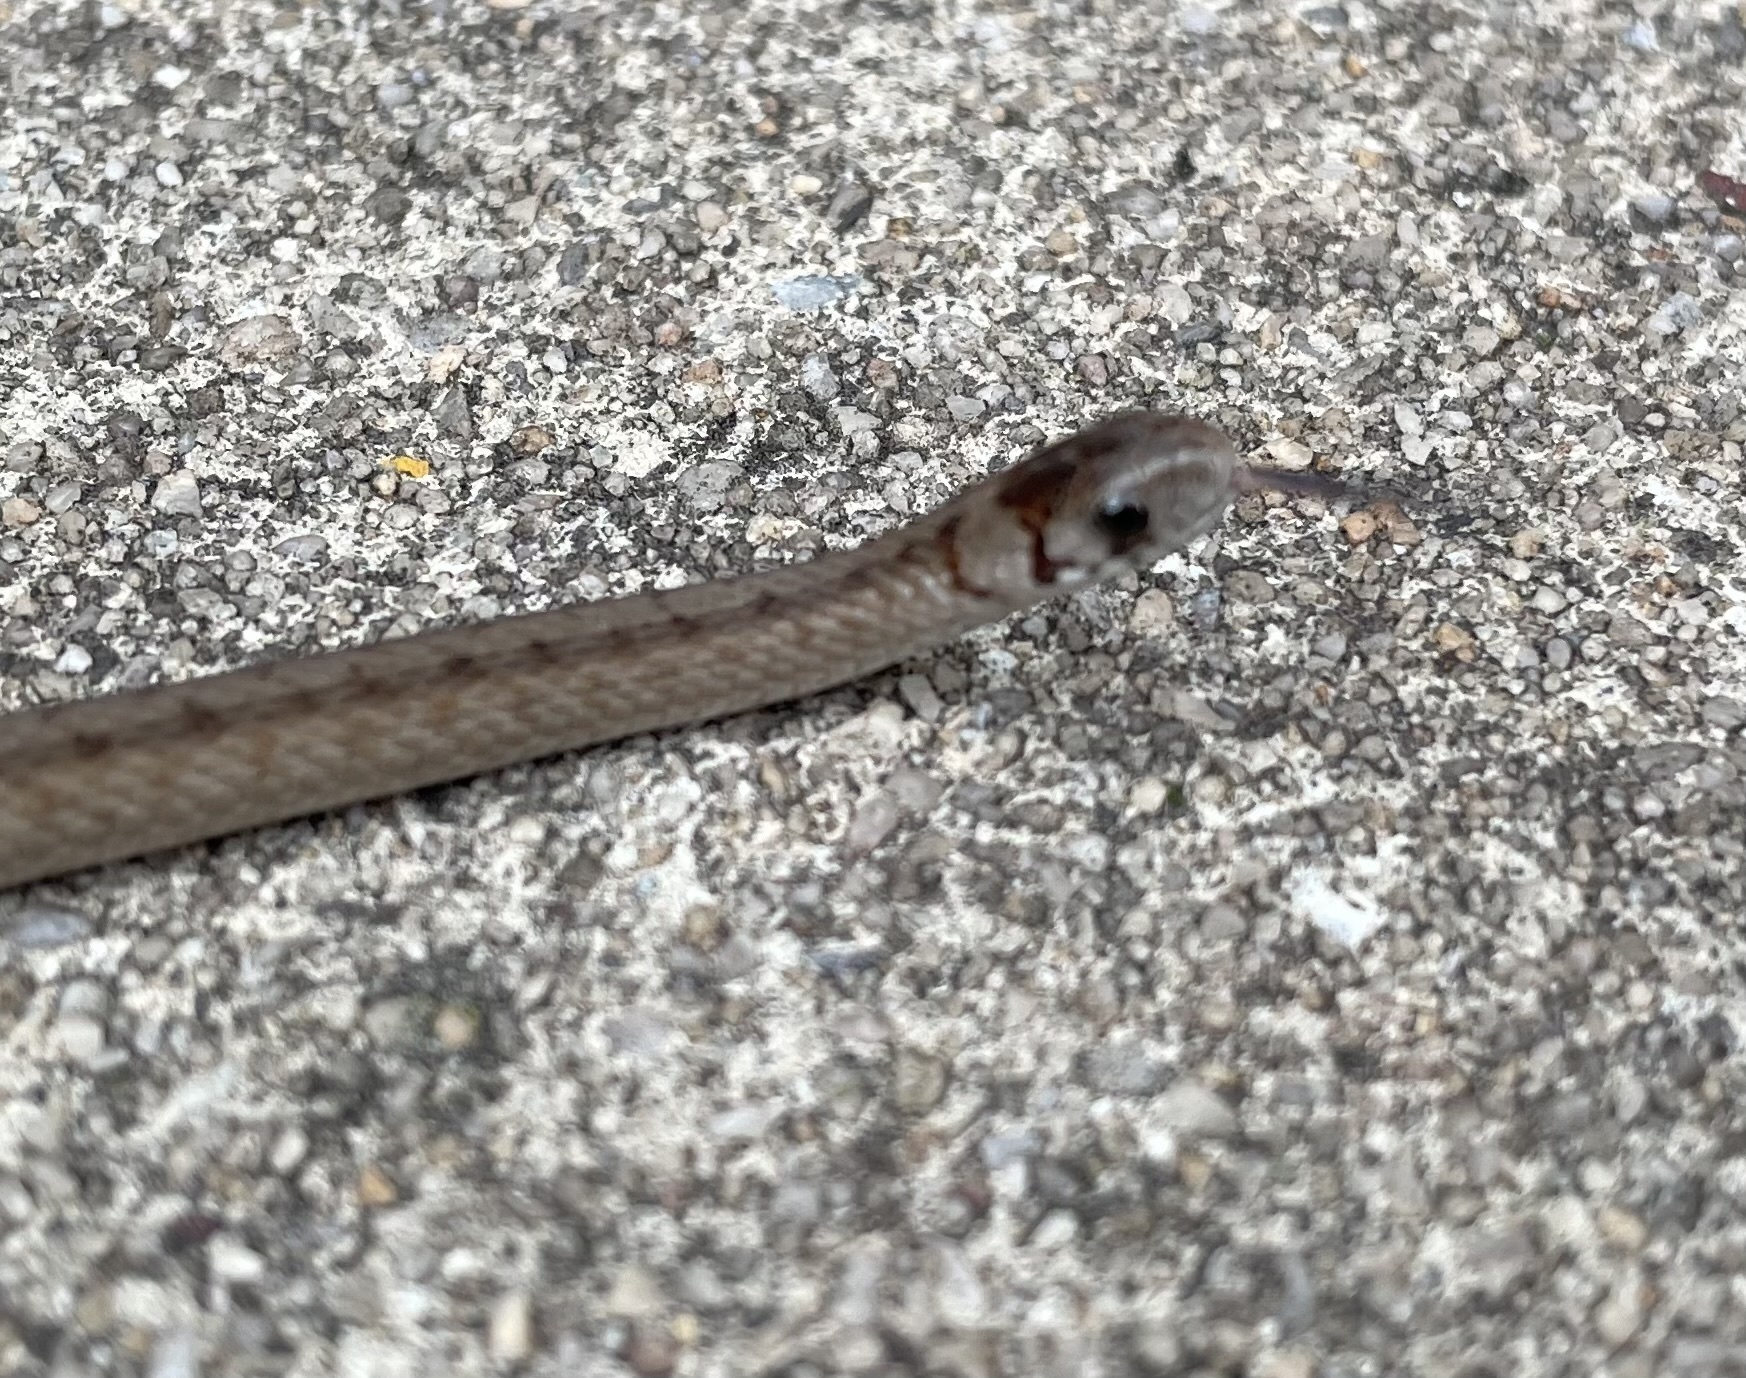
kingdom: Animalia
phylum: Chordata
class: Squamata
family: Colubridae
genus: Storeria
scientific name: Storeria dekayi
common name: (dekay’s) brown snake
